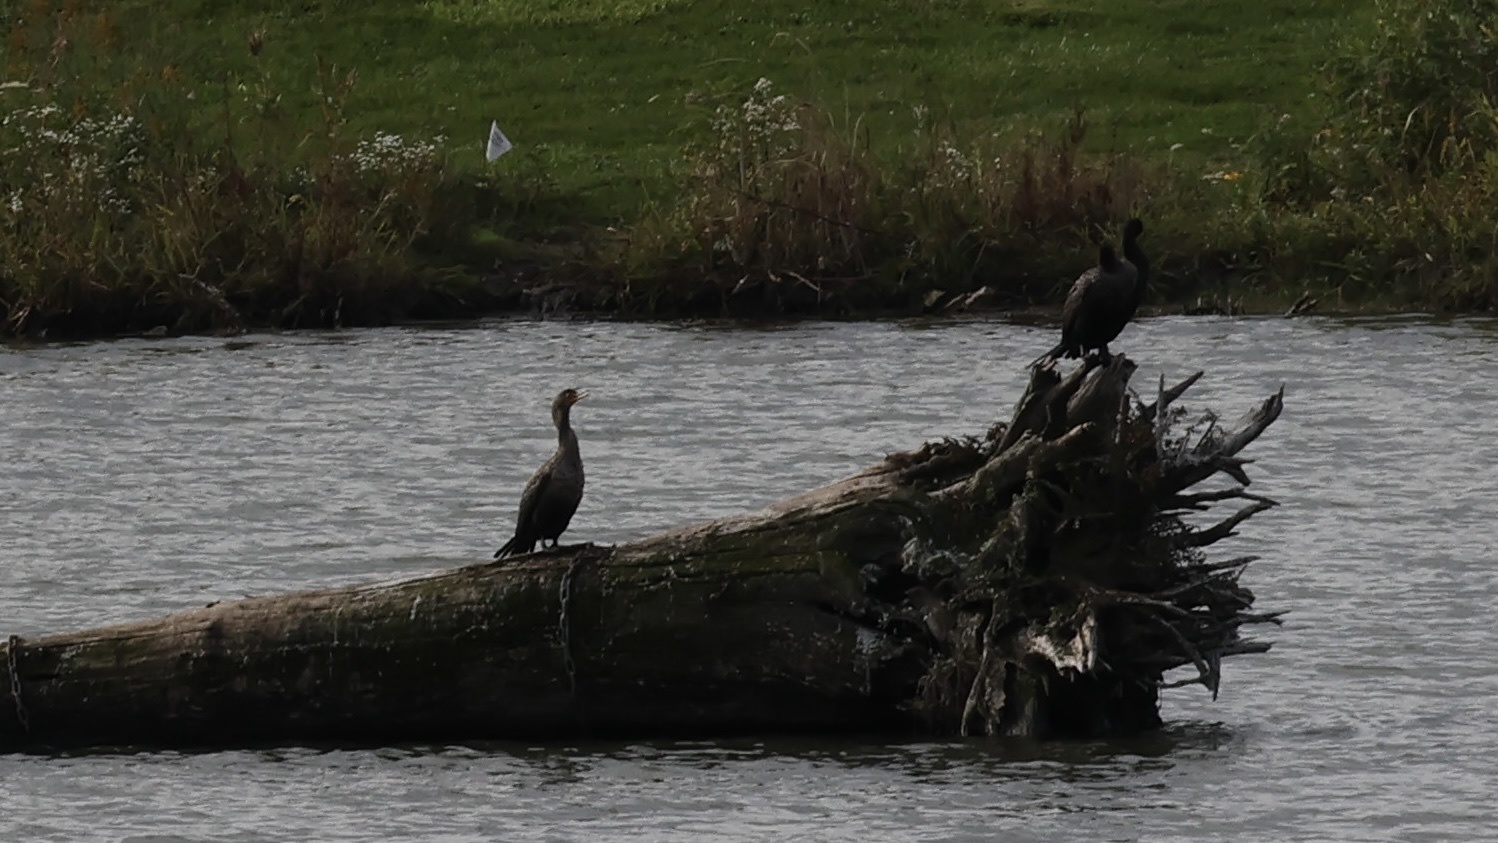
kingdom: Animalia
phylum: Chordata
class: Aves
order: Suliformes
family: Phalacrocoracidae
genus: Phalacrocorax
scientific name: Phalacrocorax auritus
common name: Double-crested cormorant
